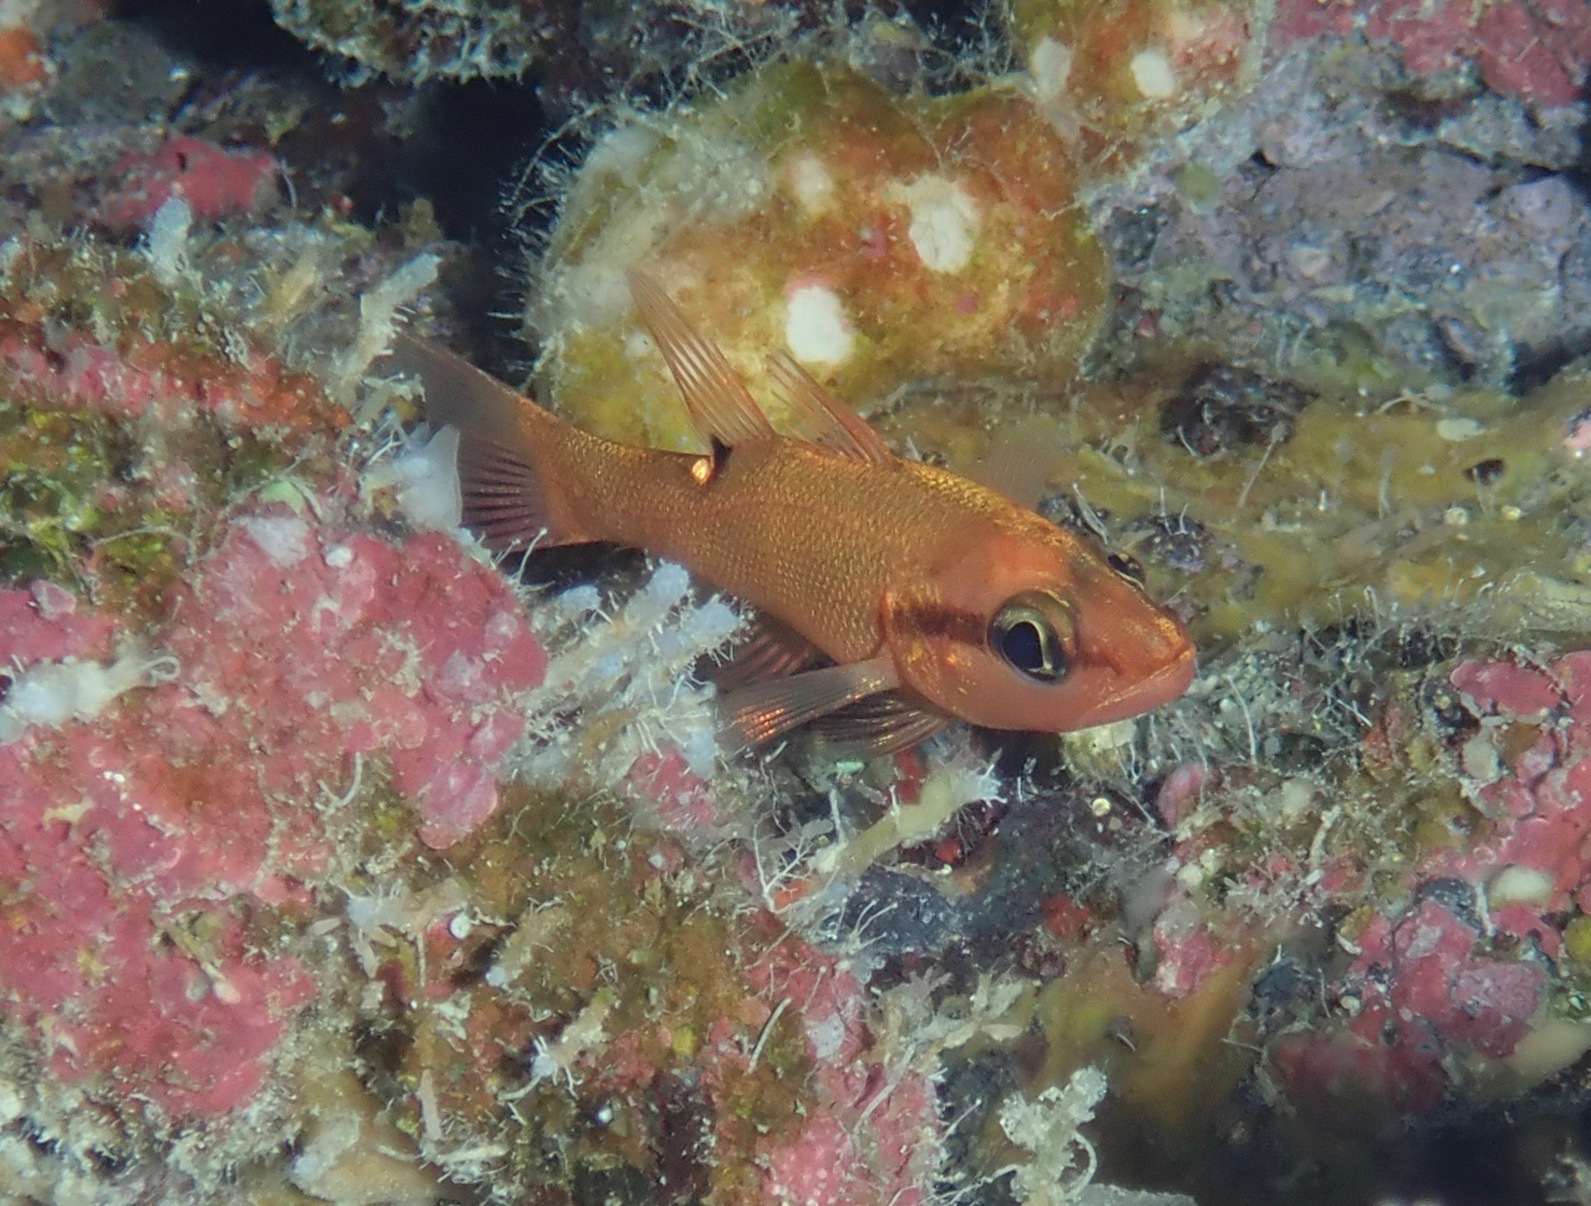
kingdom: Animalia
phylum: Chordata
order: Perciformes
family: Apogonidae
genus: Zapogon
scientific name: Zapogon evermanni
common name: Cave cardinalfish
